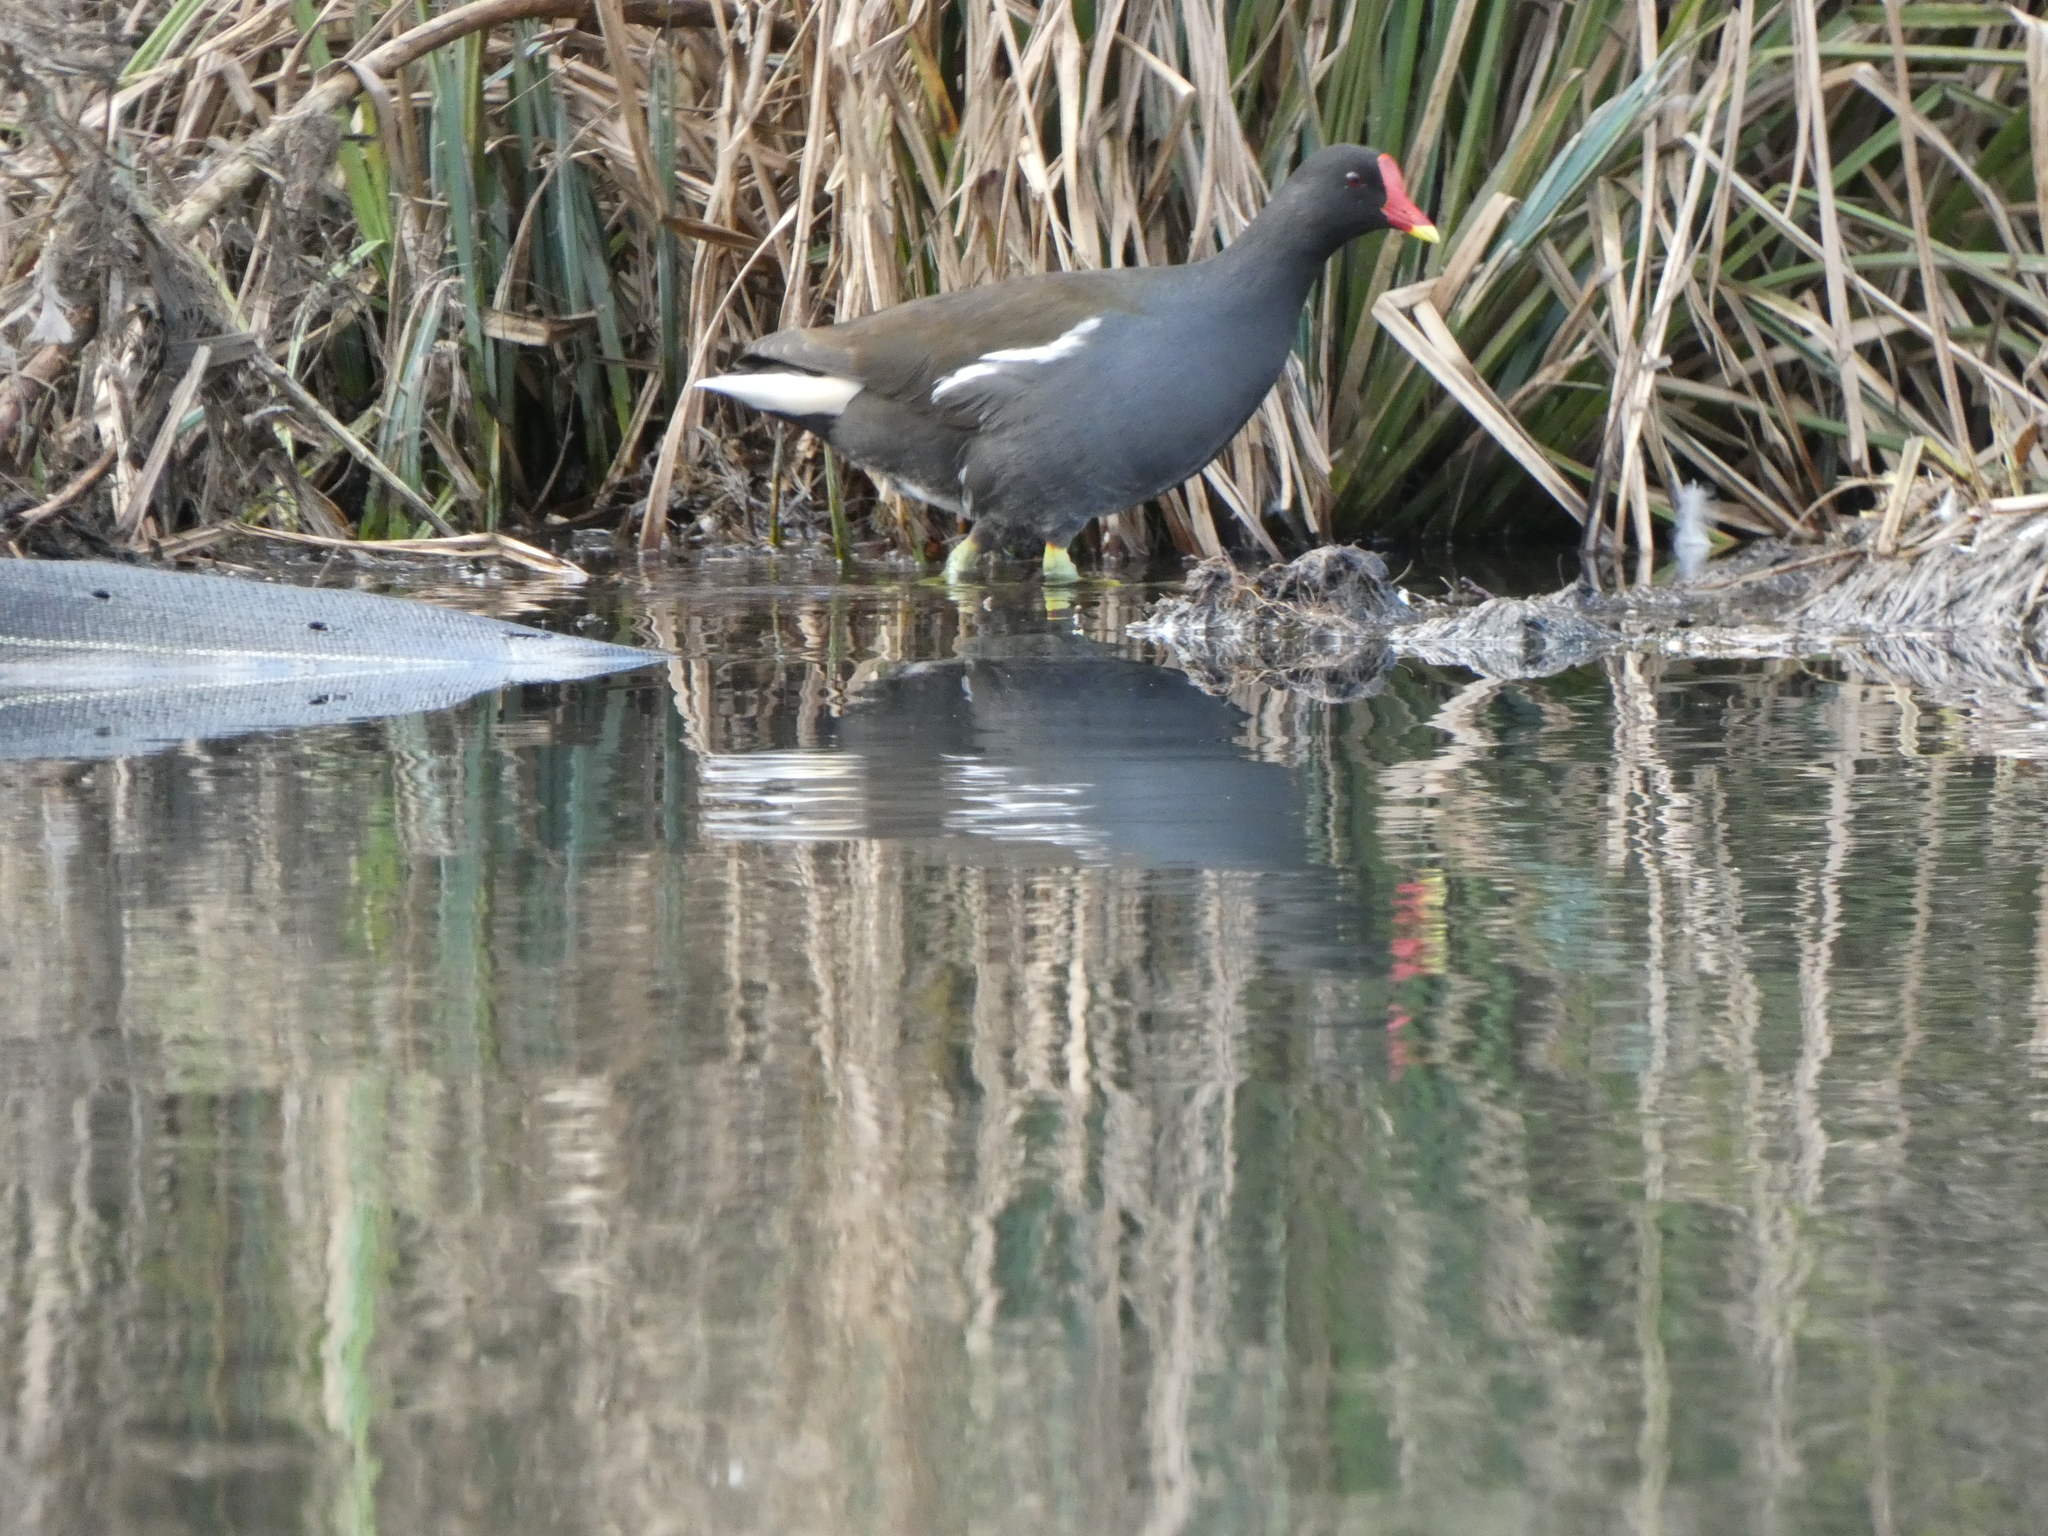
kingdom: Animalia
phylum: Chordata
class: Aves
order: Gruiformes
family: Rallidae
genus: Gallinula
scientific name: Gallinula chloropus
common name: Common moorhen
